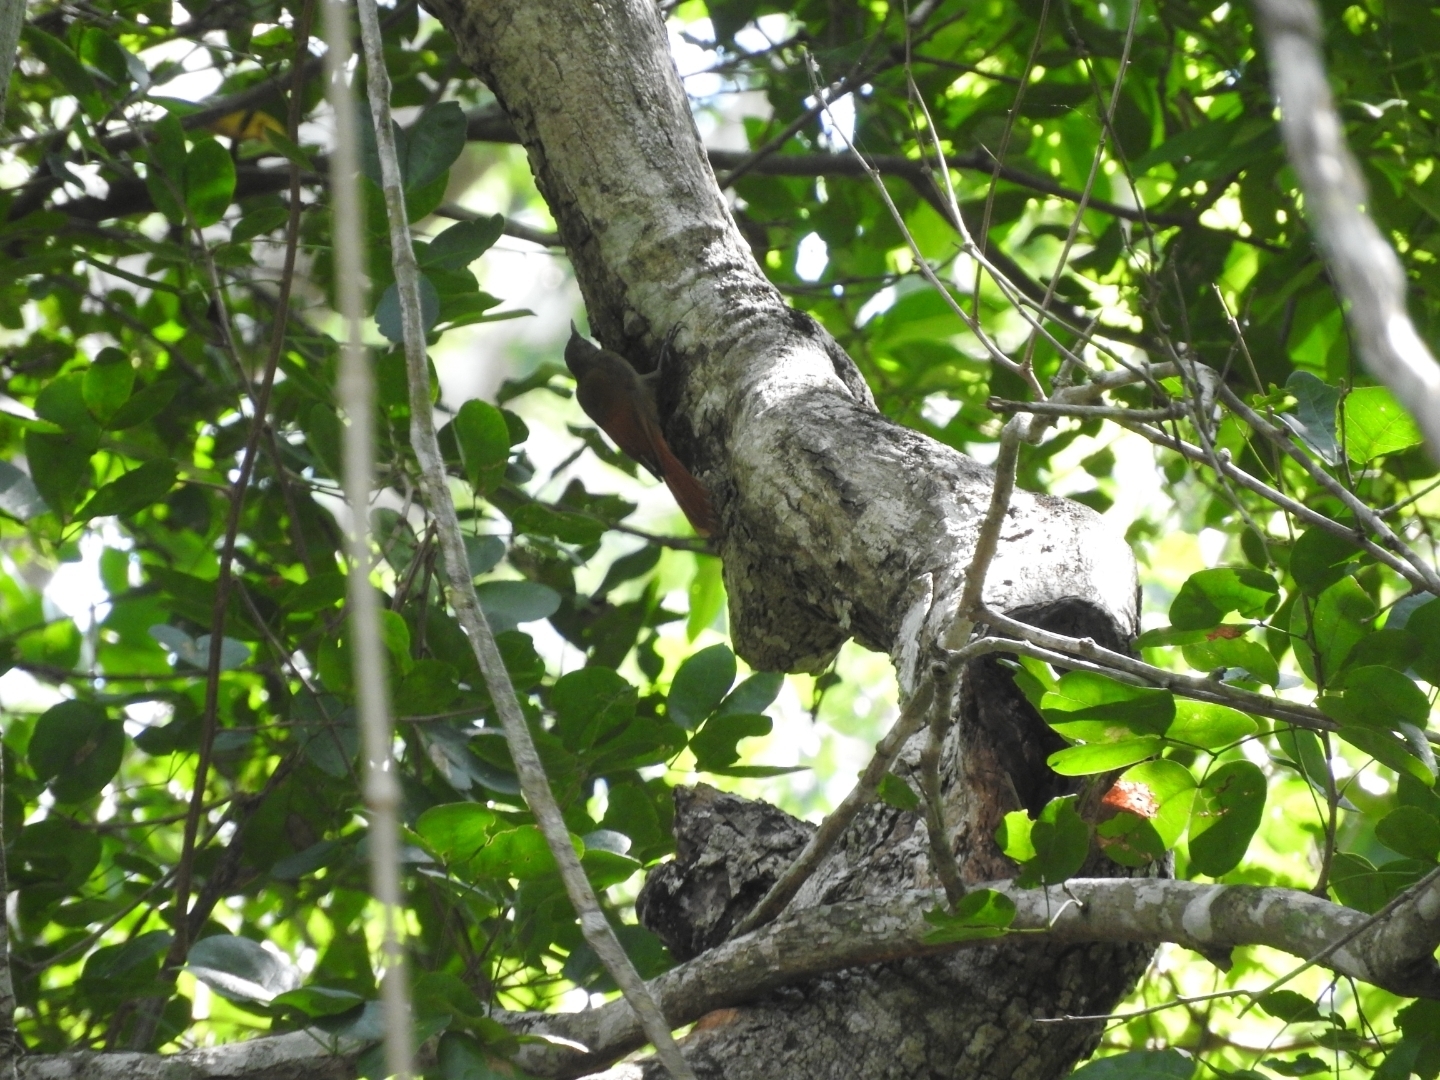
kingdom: Animalia
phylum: Chordata
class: Aves
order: Passeriformes
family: Furnariidae
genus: Sittasomus
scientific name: Sittasomus griseicapillus
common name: Olivaceous woodcreeper
